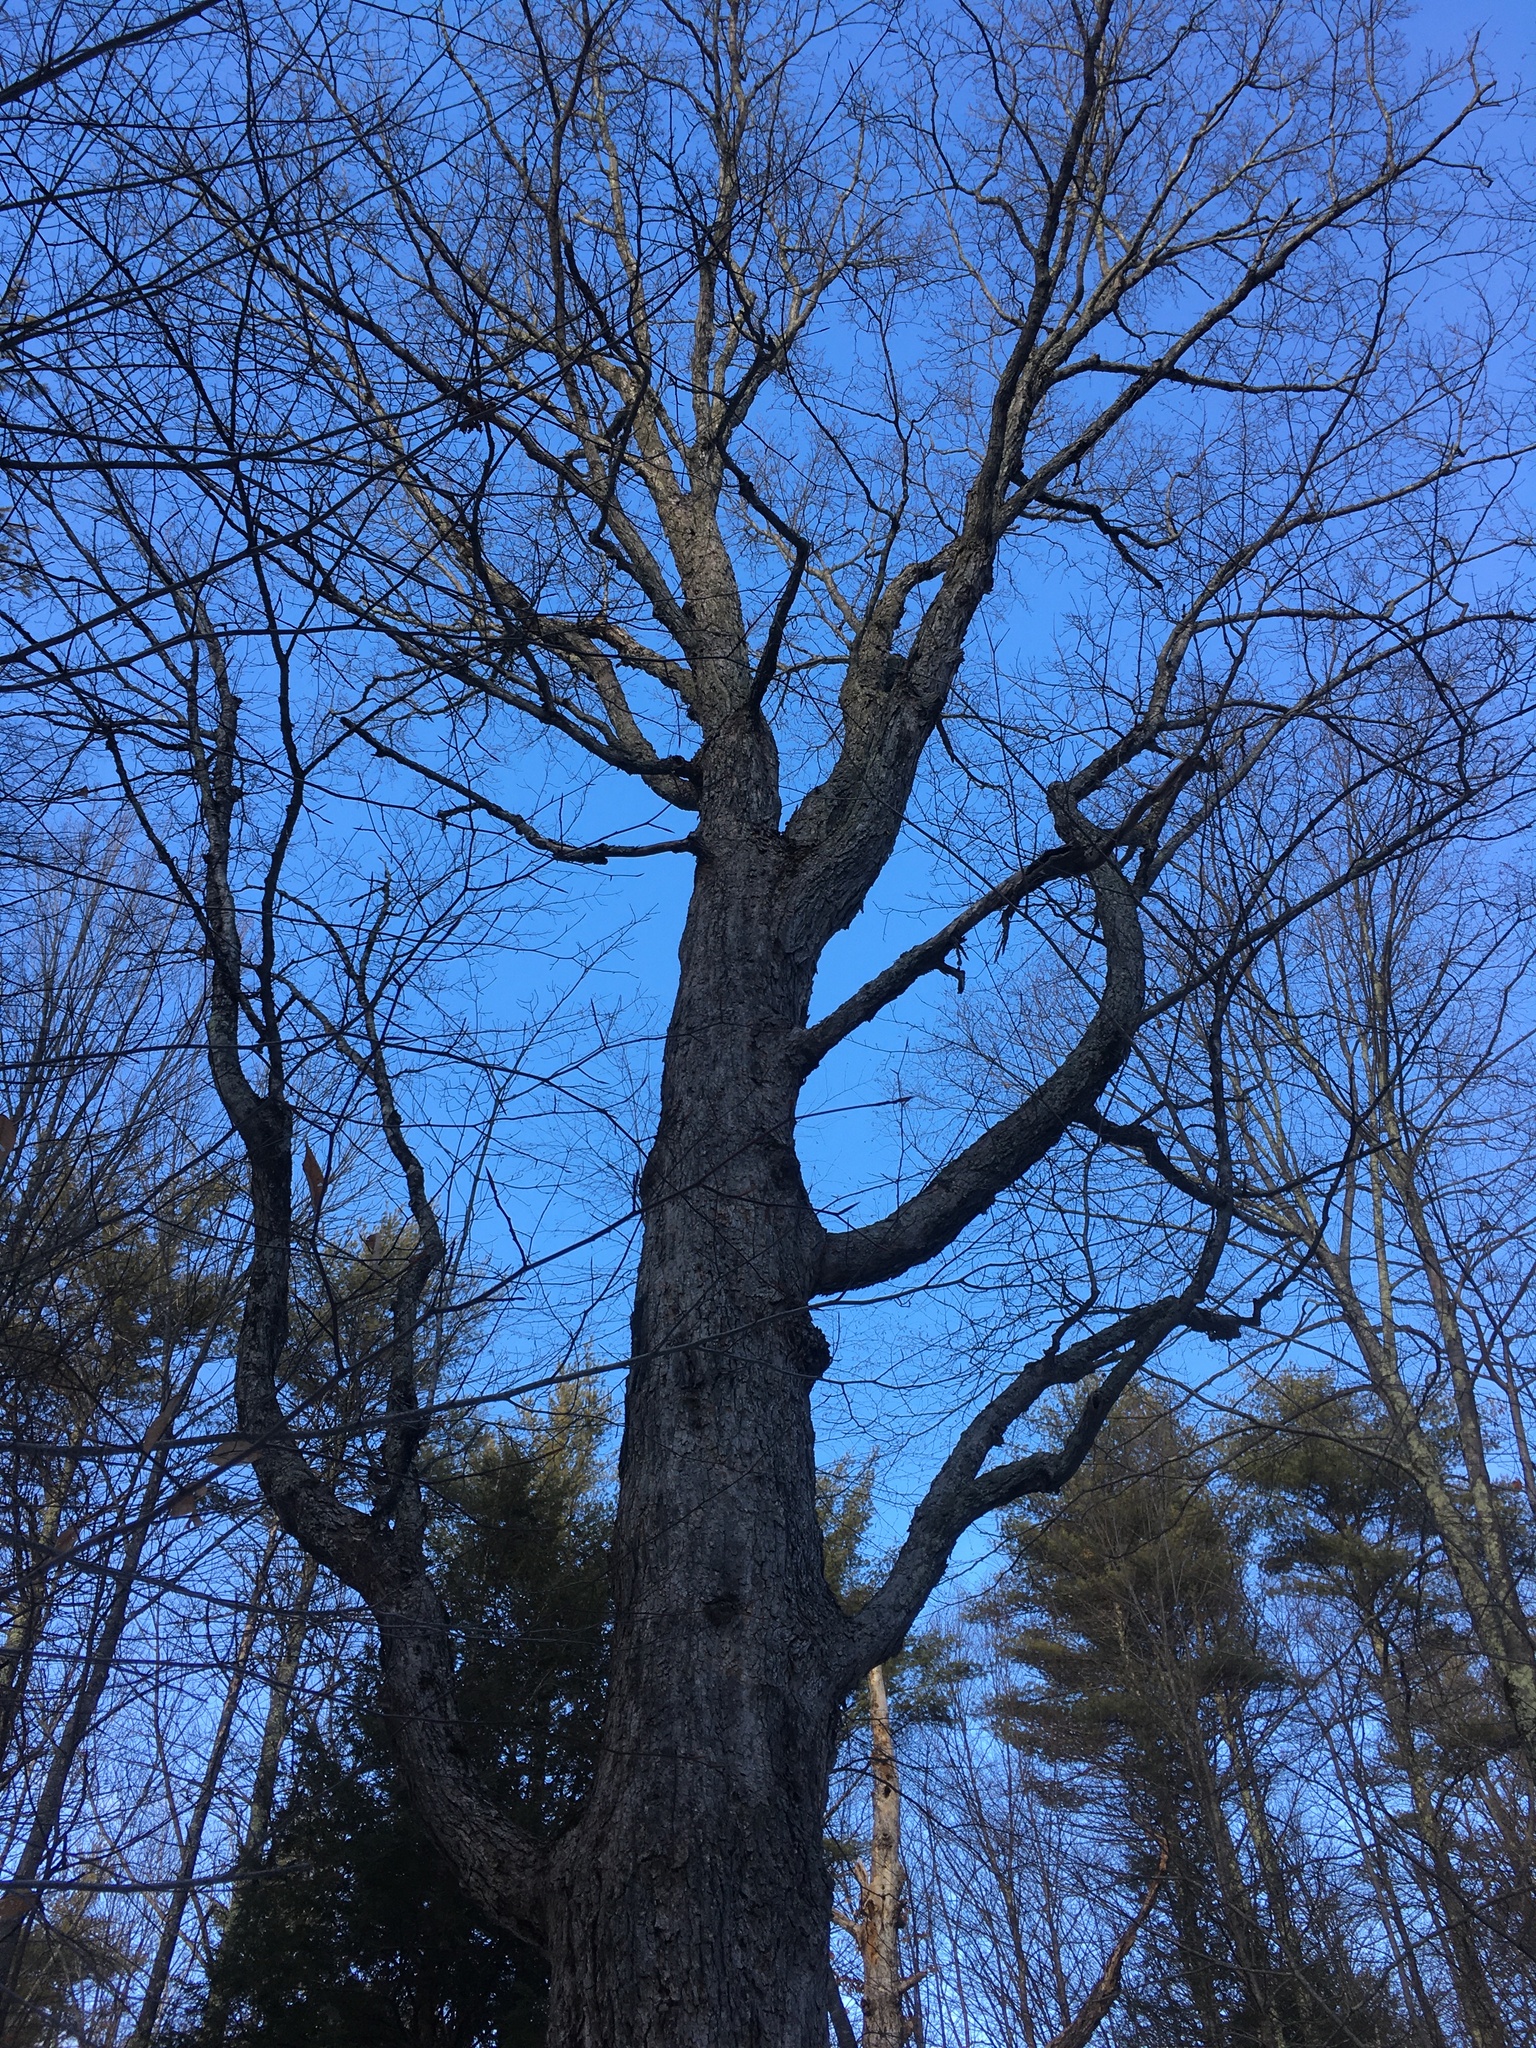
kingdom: Plantae
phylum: Tracheophyta
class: Magnoliopsida
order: Sapindales
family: Sapindaceae
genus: Acer
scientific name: Acer saccharum
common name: Sugar maple
